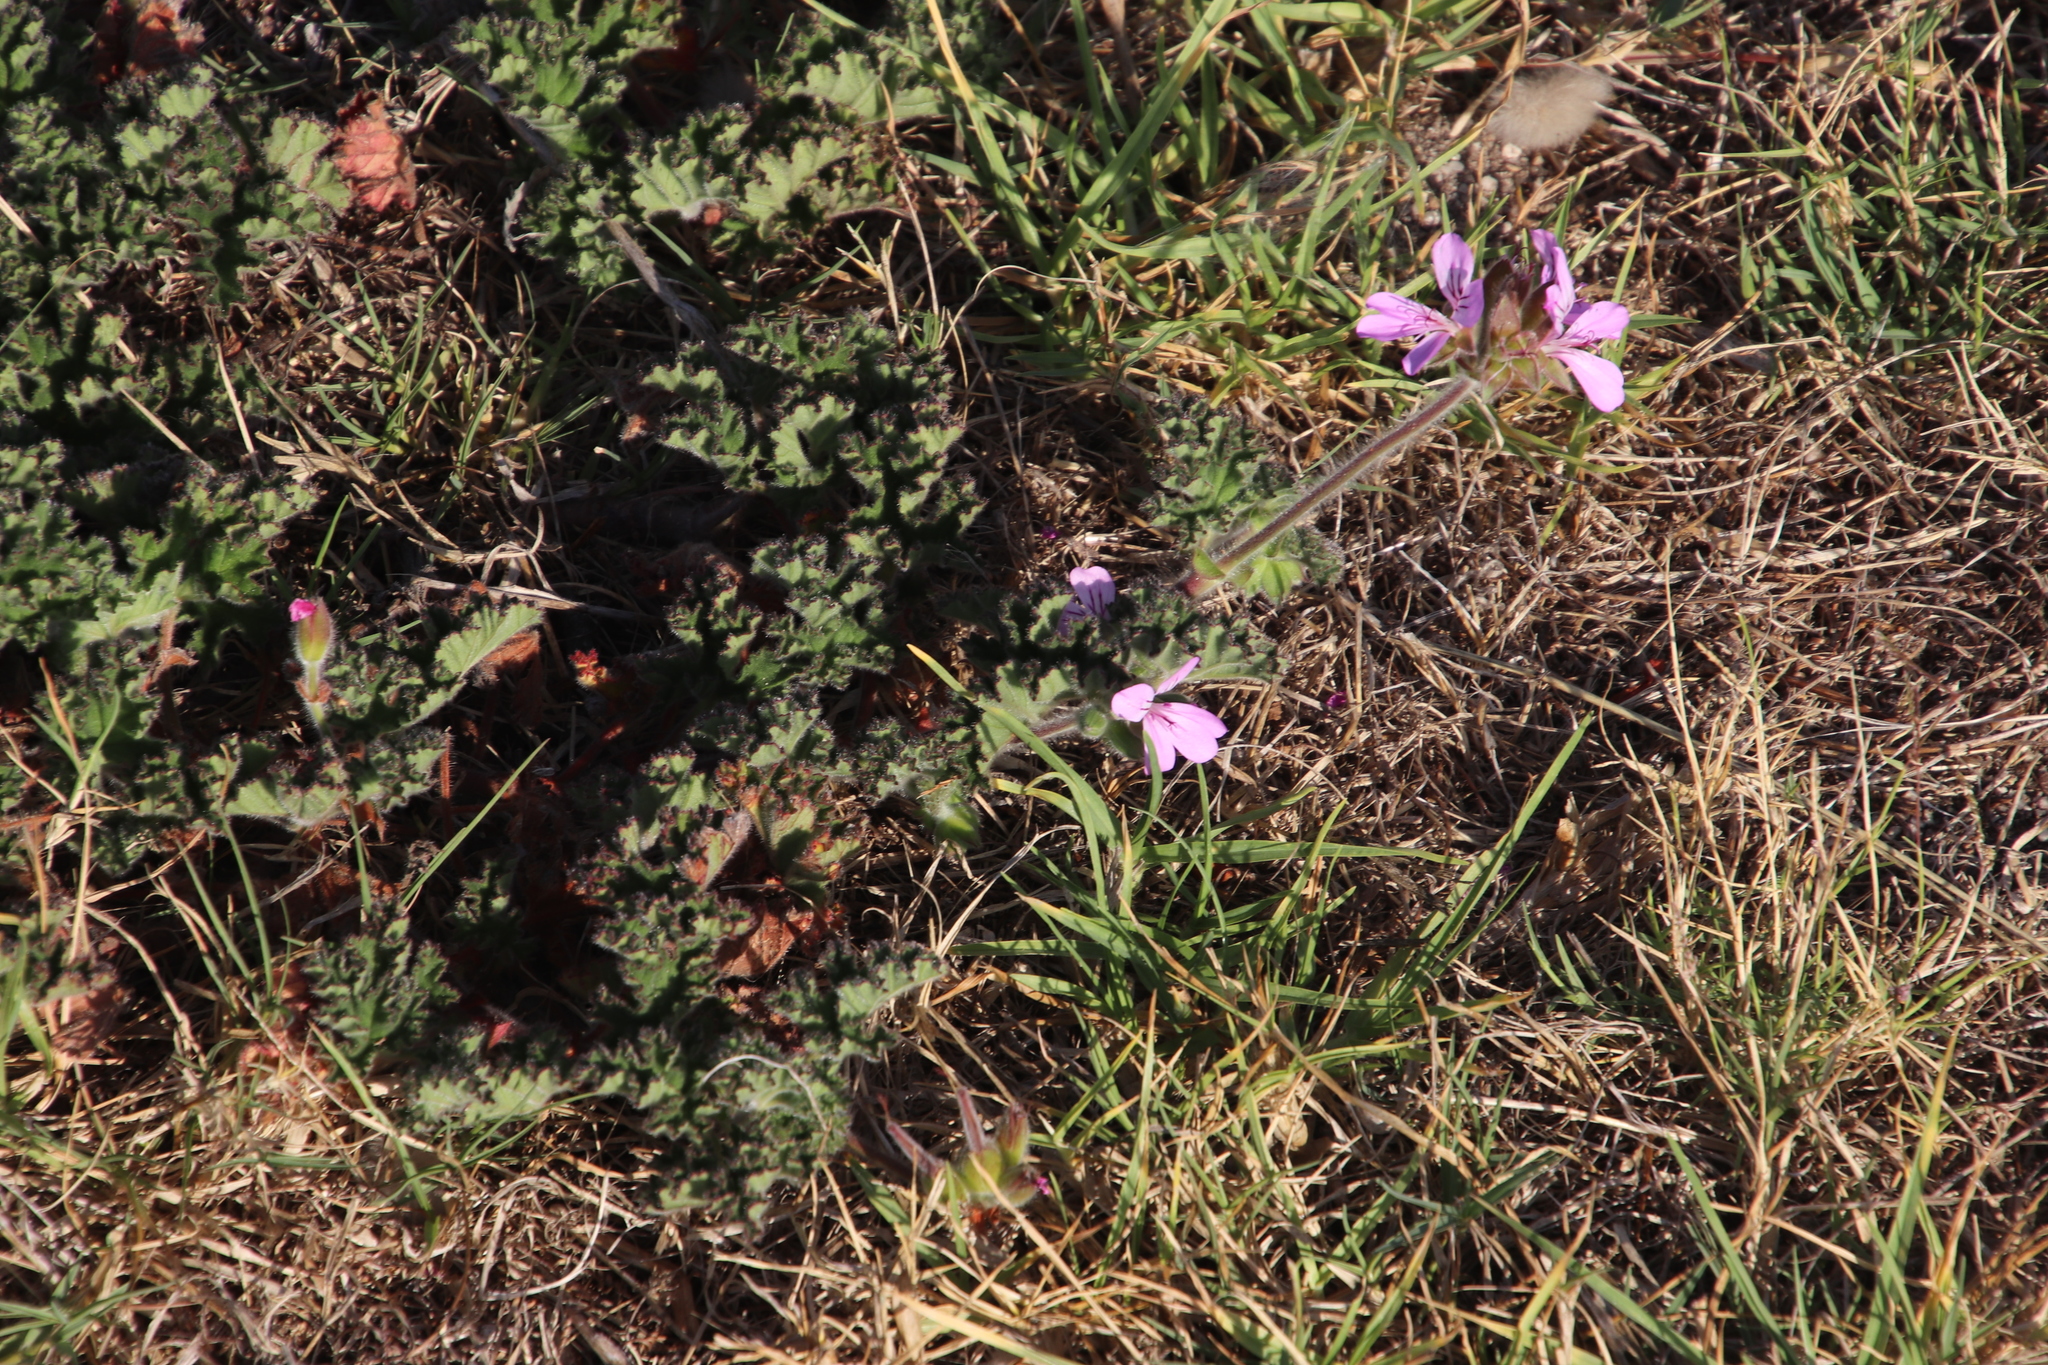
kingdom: Plantae
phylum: Tracheophyta
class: Magnoliopsida
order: Geraniales
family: Geraniaceae
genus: Pelargonium
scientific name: Pelargonium capitatum
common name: Rose scented geranium
